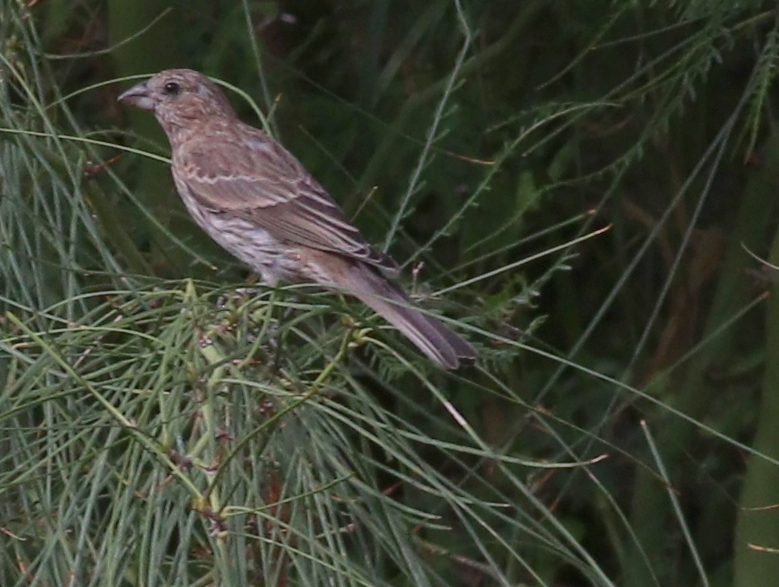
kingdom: Animalia
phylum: Chordata
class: Aves
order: Passeriformes
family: Fringillidae
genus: Haemorhous
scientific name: Haemorhous mexicanus
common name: House finch
